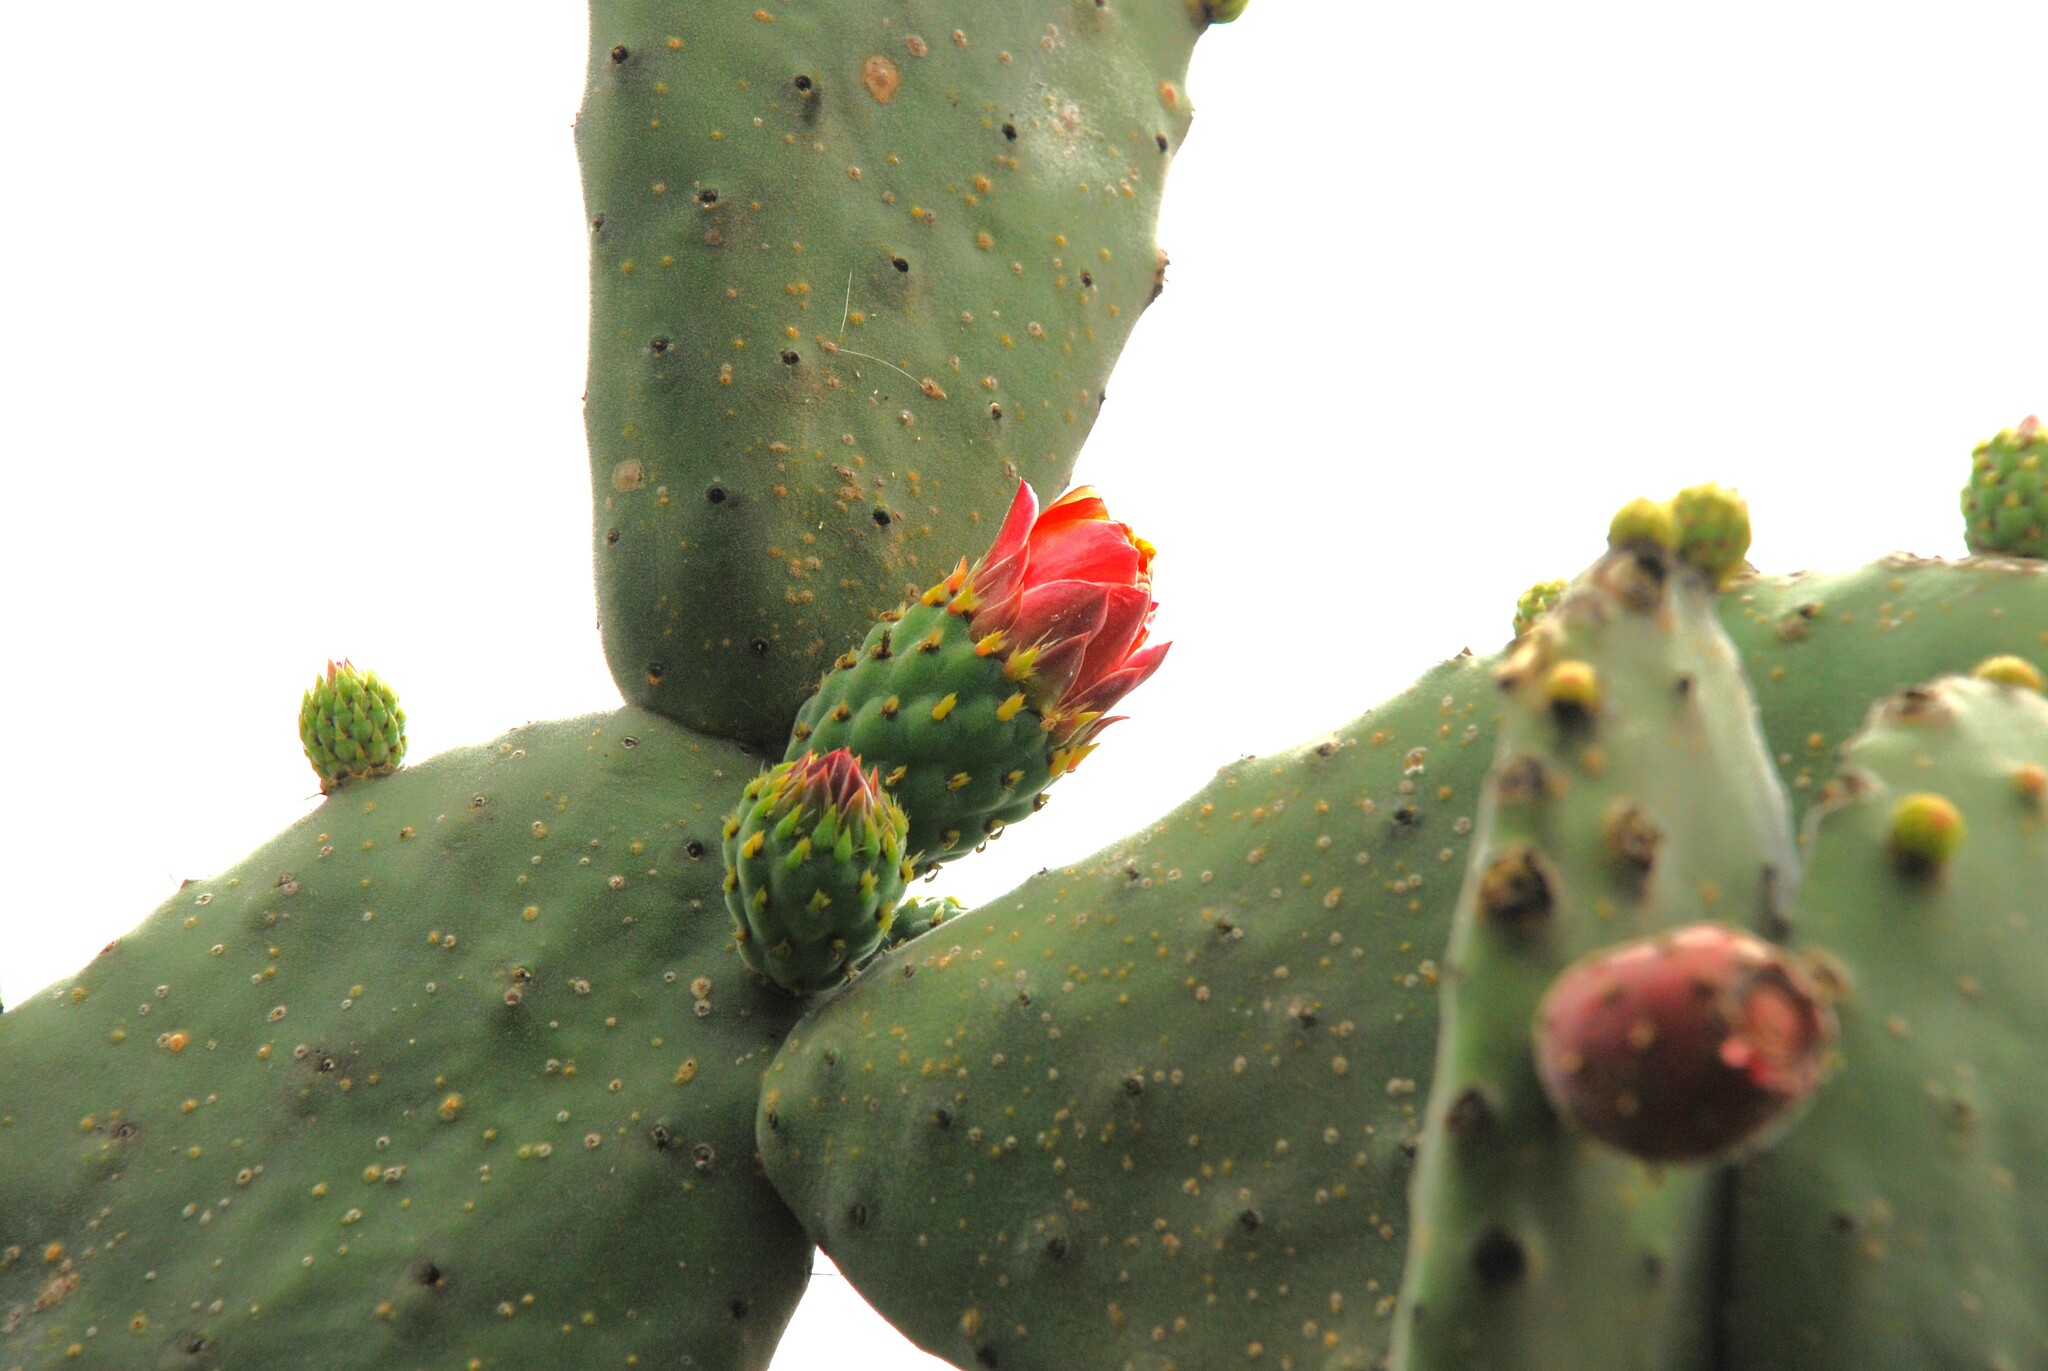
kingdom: Plantae
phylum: Tracheophyta
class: Magnoliopsida
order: Caryophyllales
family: Cactaceae
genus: Opuntia
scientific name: Opuntia tomentosa
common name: Woollyjoint pricklypear
